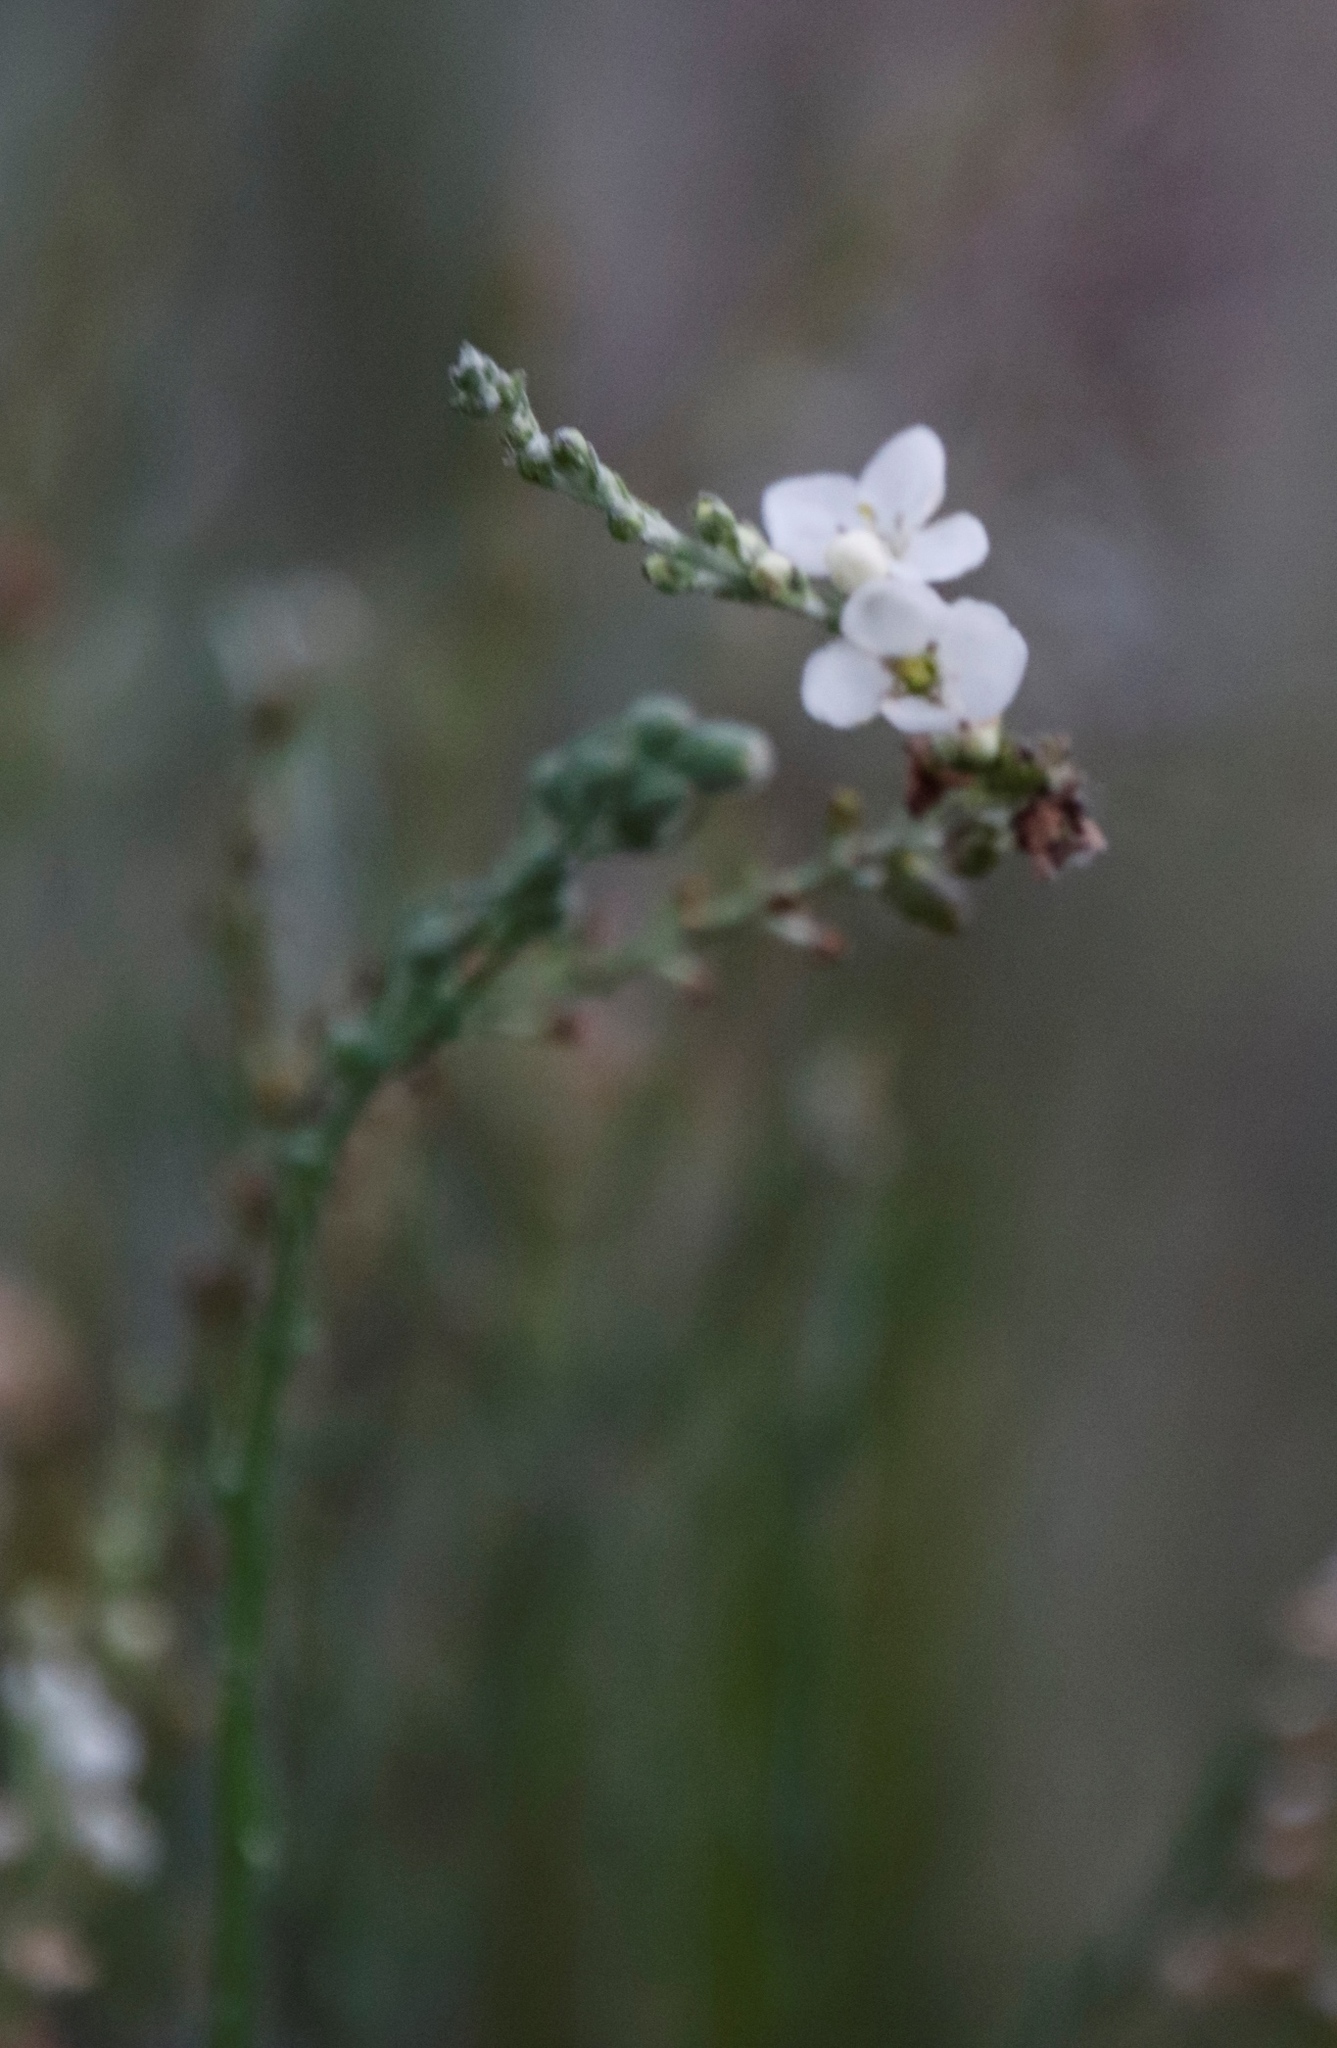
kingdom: Plantae
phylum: Tracheophyta
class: Magnoliopsida
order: Lamiales
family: Scrophulariaceae
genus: Buddleja
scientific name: Buddleja virgata
